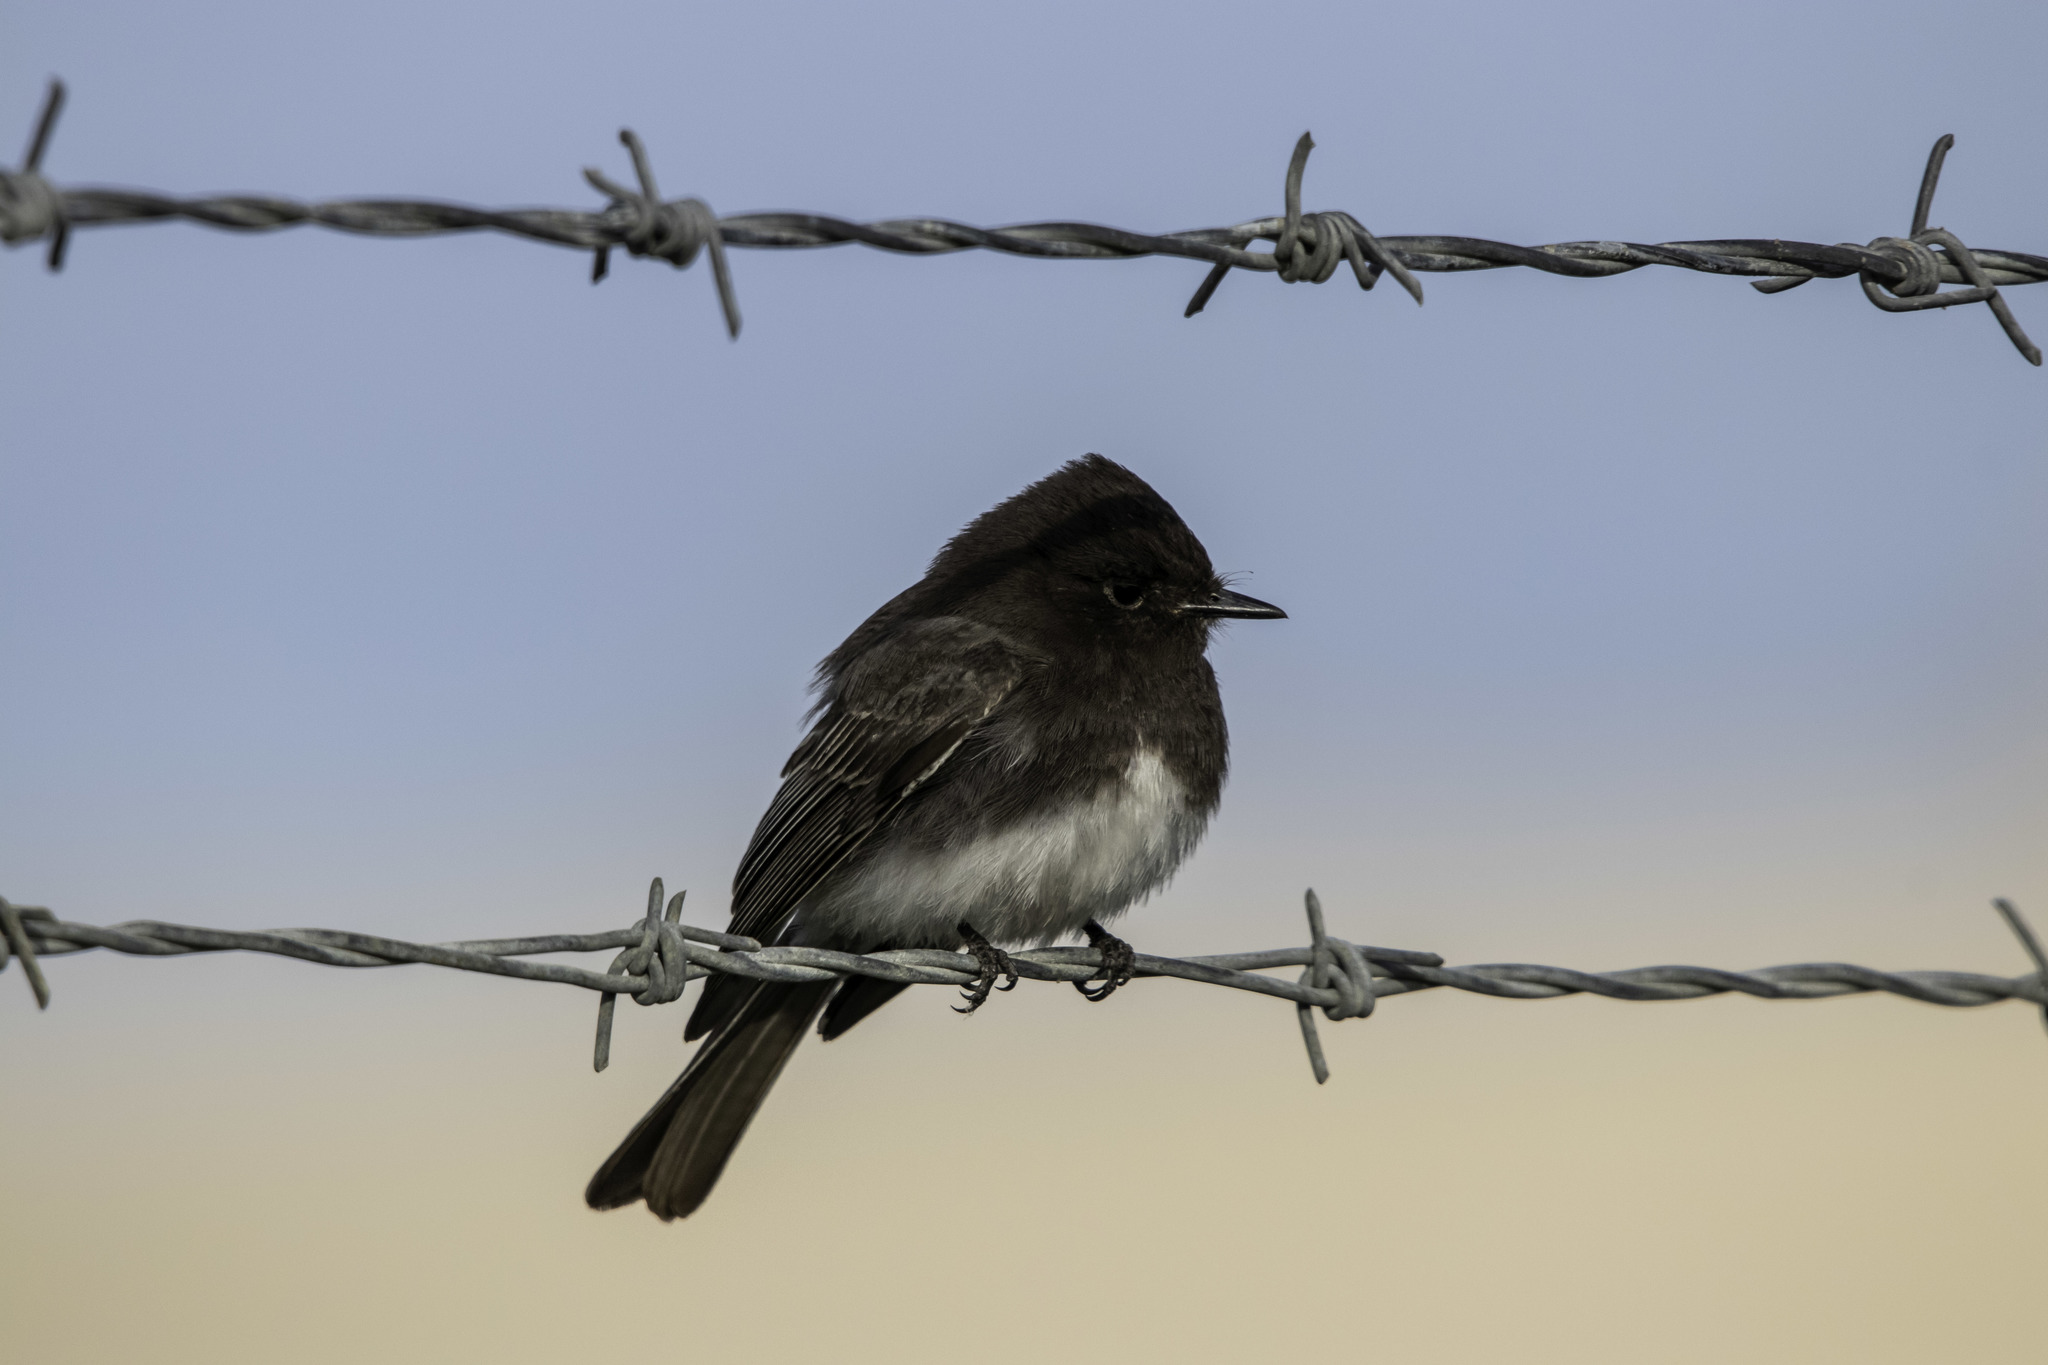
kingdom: Animalia
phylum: Chordata
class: Aves
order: Passeriformes
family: Tyrannidae
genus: Sayornis
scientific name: Sayornis nigricans
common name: Black phoebe
